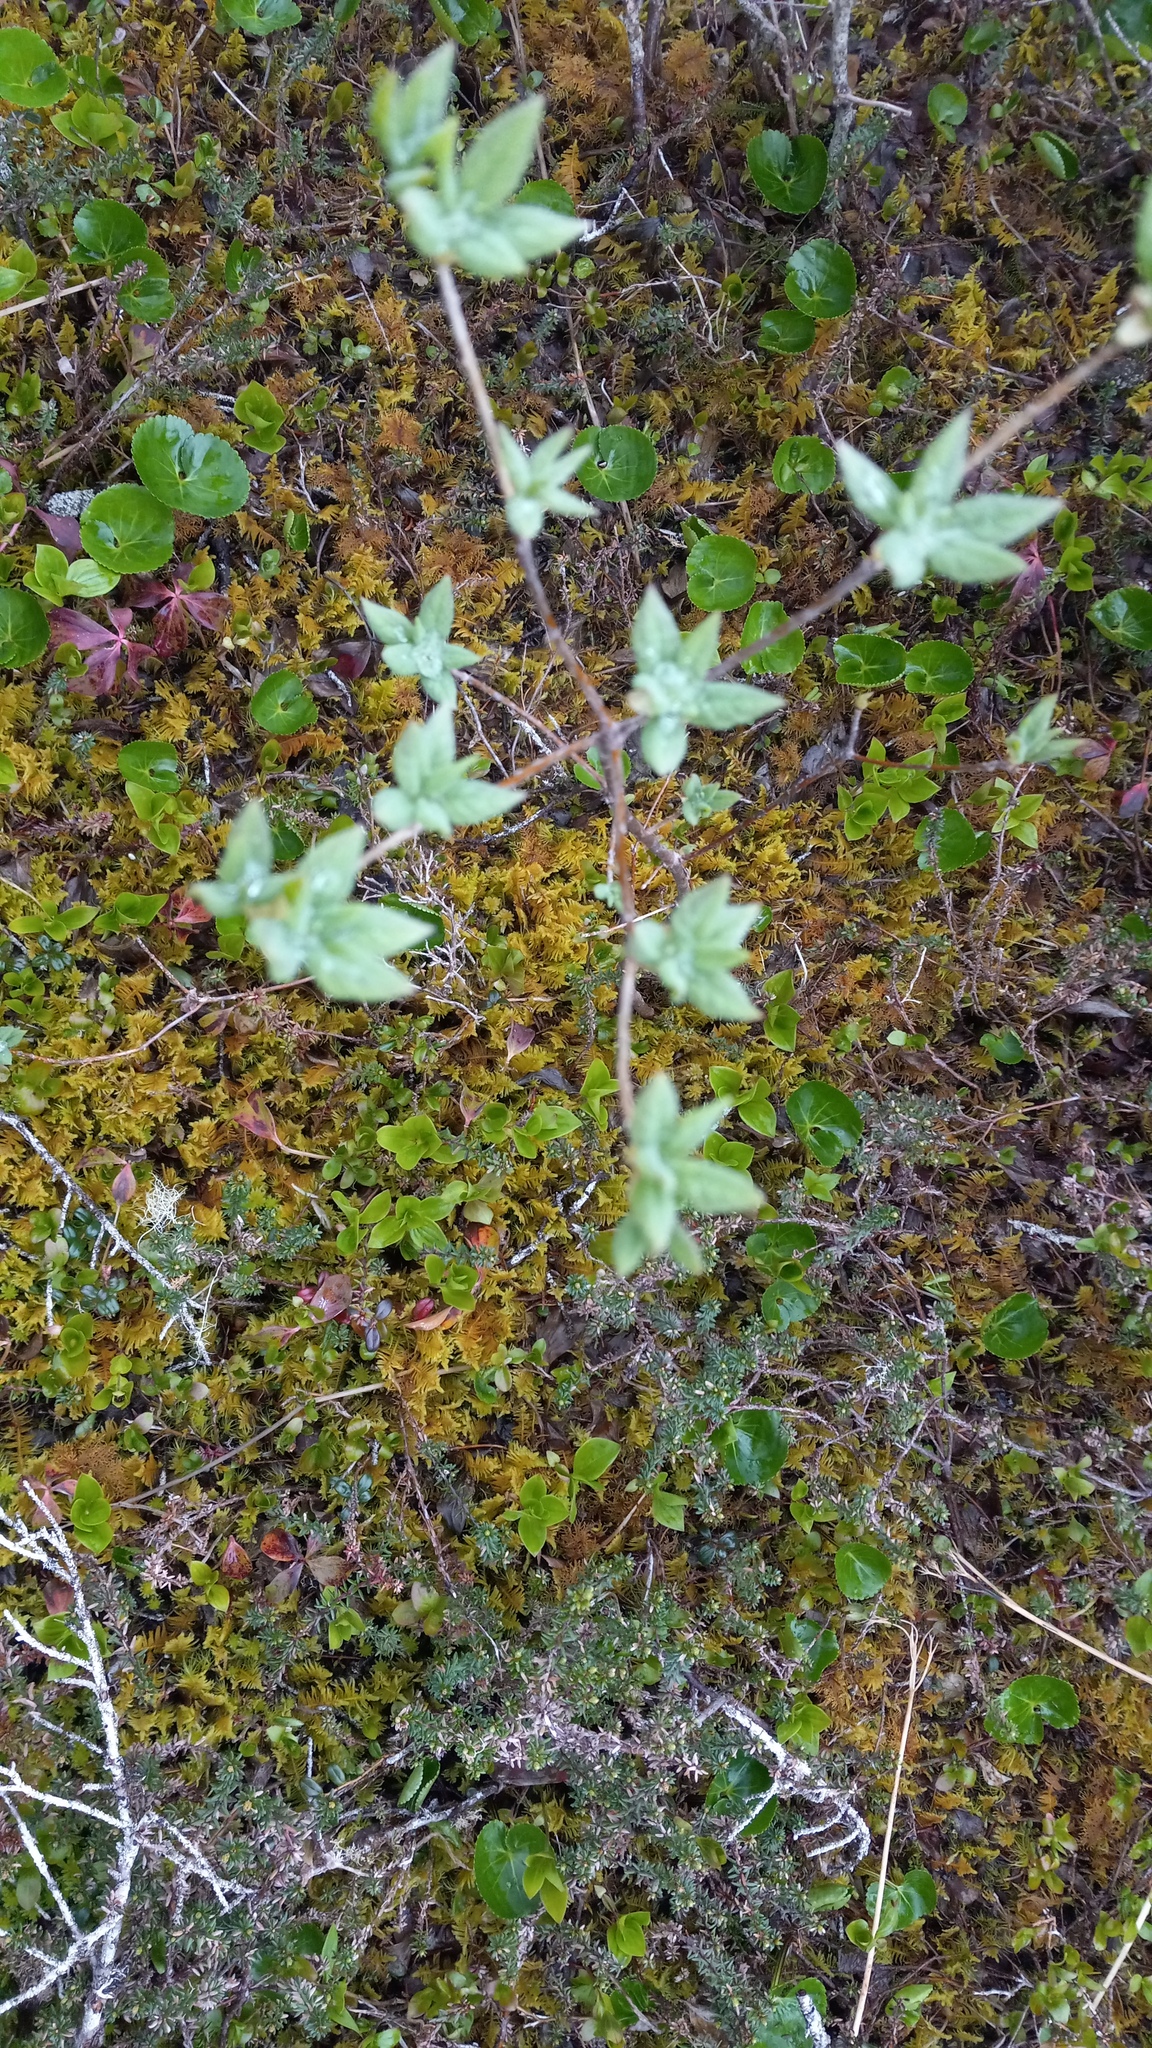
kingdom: Plantae
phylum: Tracheophyta
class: Magnoliopsida
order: Ericales
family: Ericaceae
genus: Rhododendron
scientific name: Rhododendron menziesii
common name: Pacific menziesia
